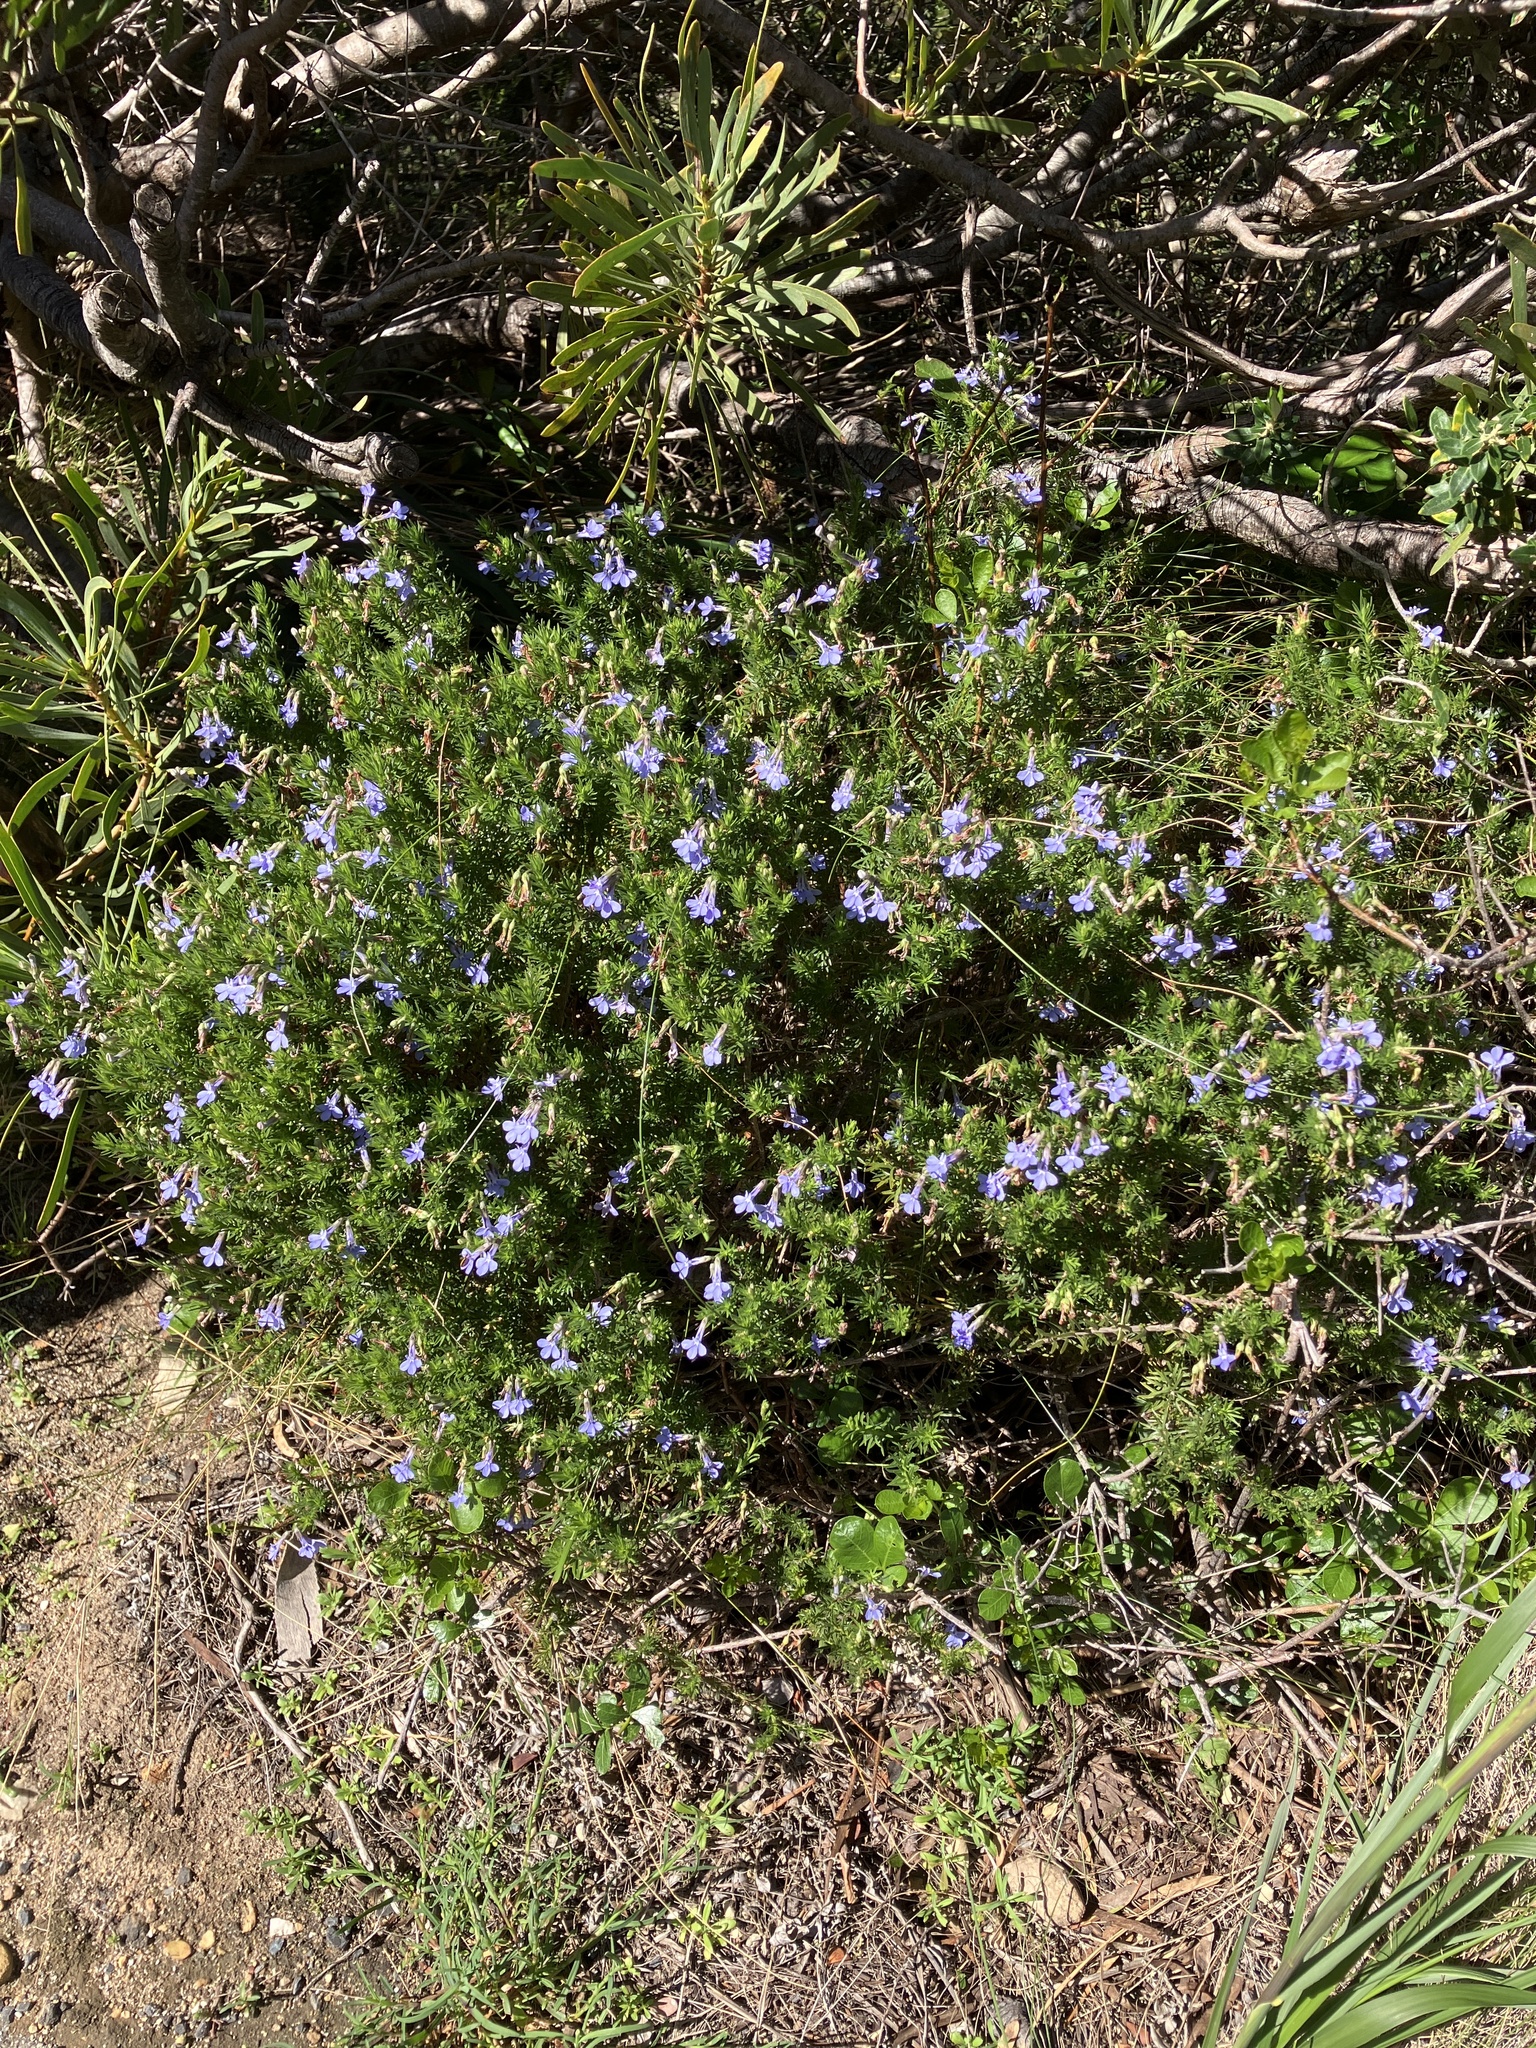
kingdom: Plantae
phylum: Tracheophyta
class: Magnoliopsida
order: Asterales
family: Campanulaceae
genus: Lobelia
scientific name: Lobelia pinifolia
